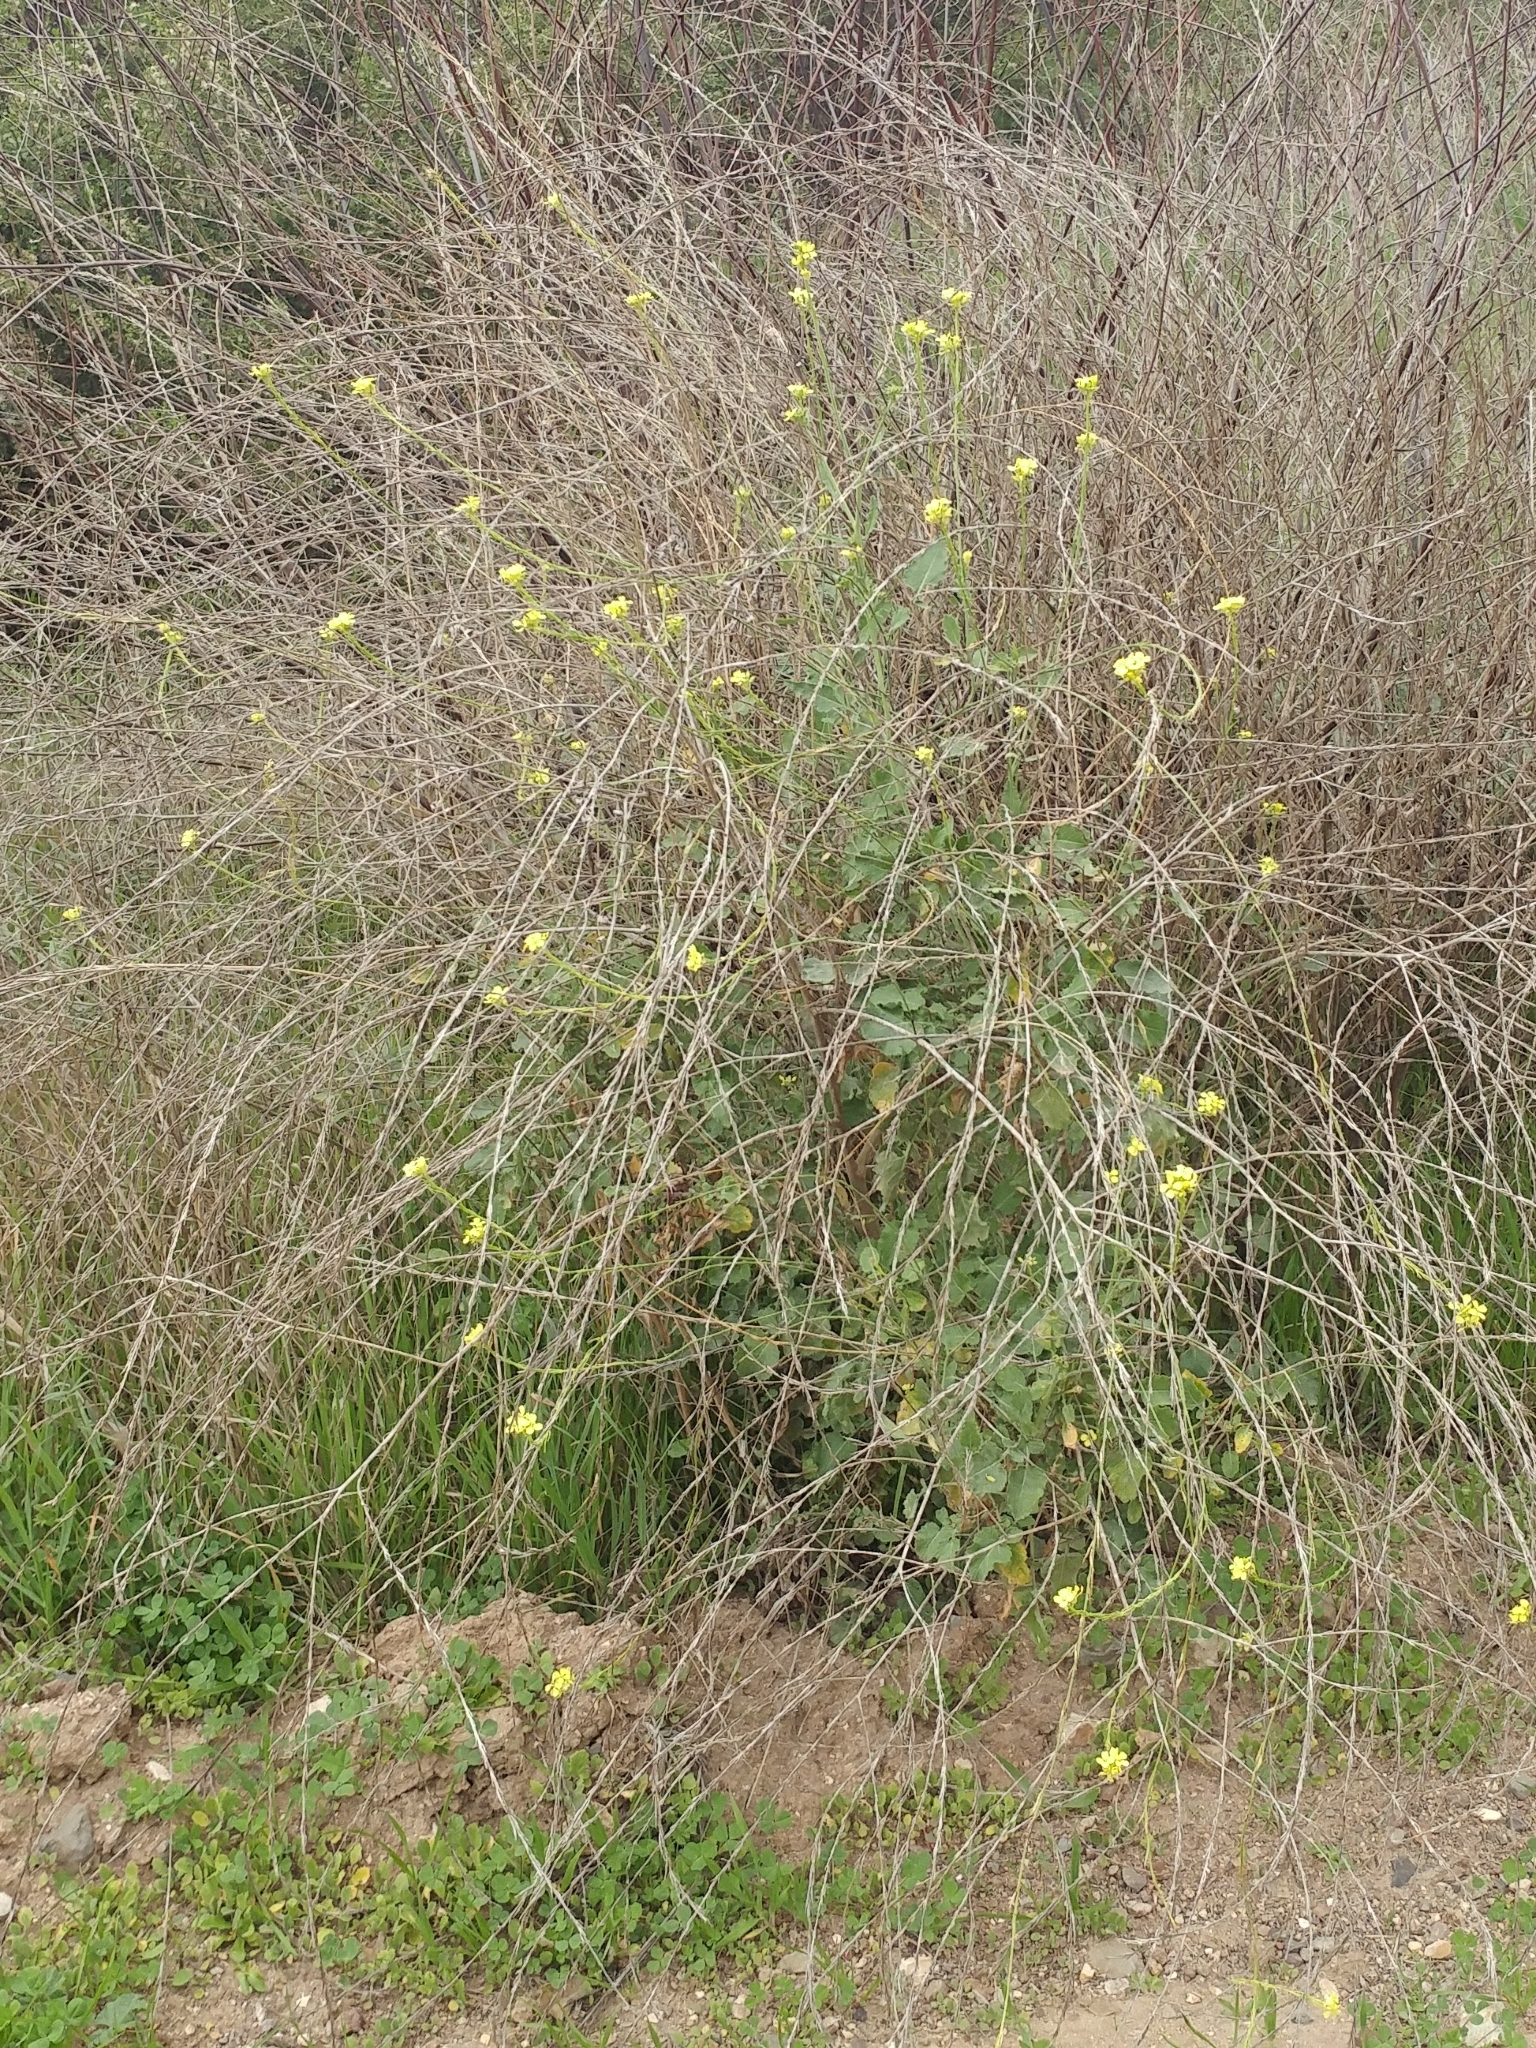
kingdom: Plantae
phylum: Tracheophyta
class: Magnoliopsida
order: Brassicales
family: Brassicaceae
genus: Hirschfeldia
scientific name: Hirschfeldia incana
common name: Hoary mustard
